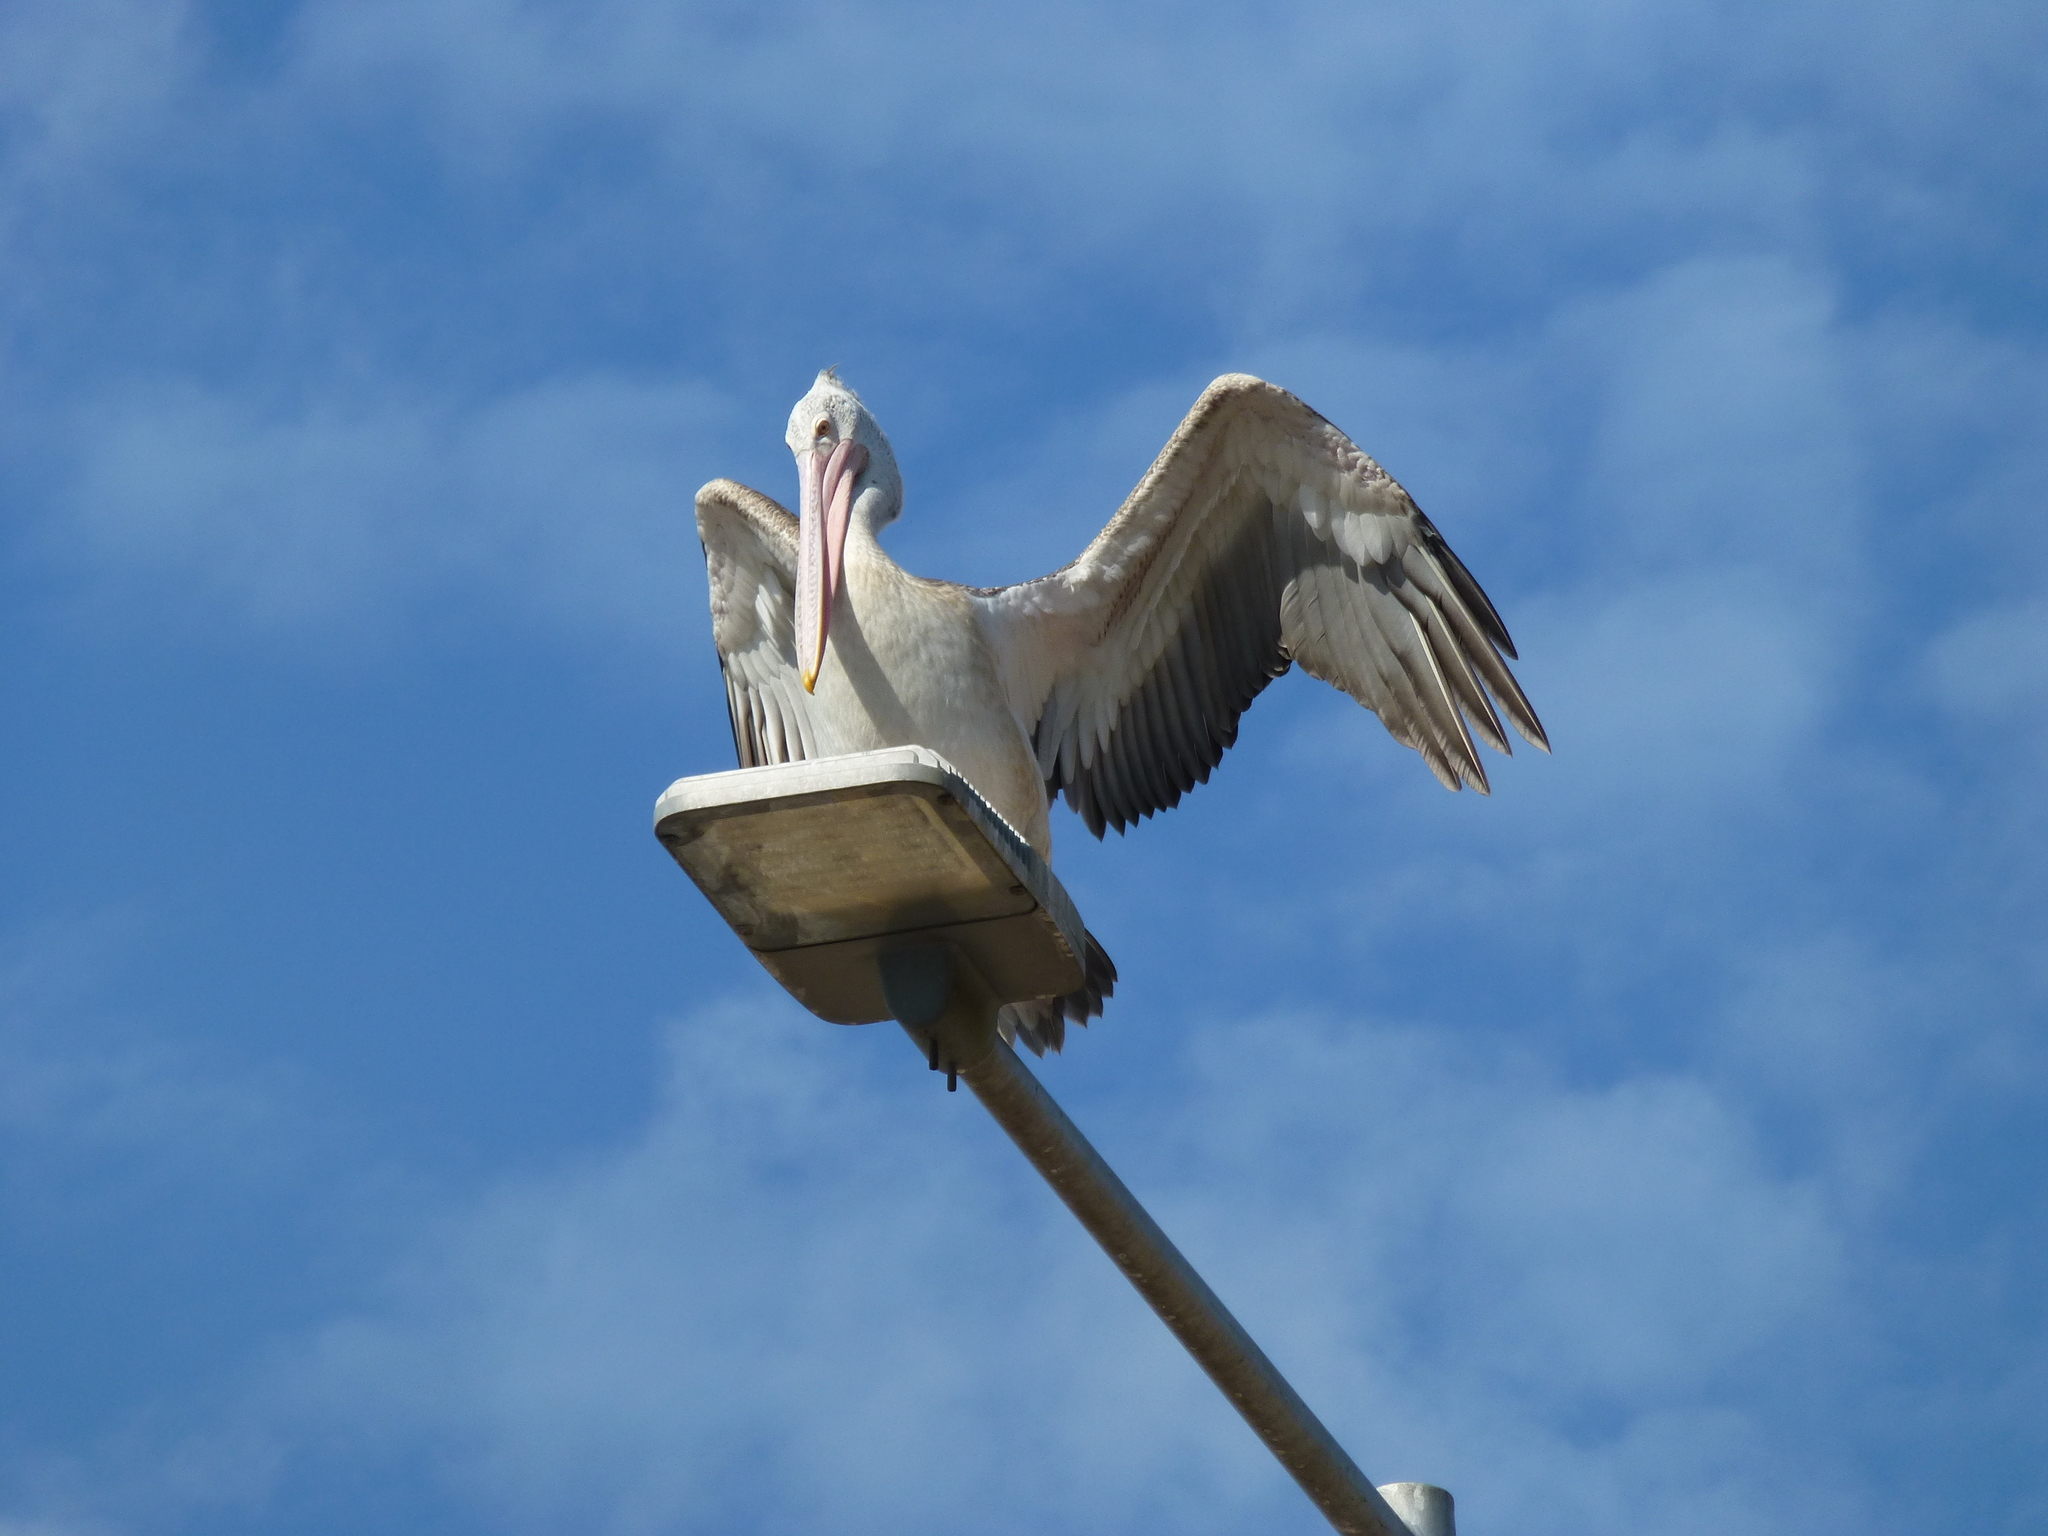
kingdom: Animalia
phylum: Chordata
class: Aves
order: Pelecaniformes
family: Pelecanidae
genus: Pelecanus
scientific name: Pelecanus philippensis
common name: Spot-billed pelican
